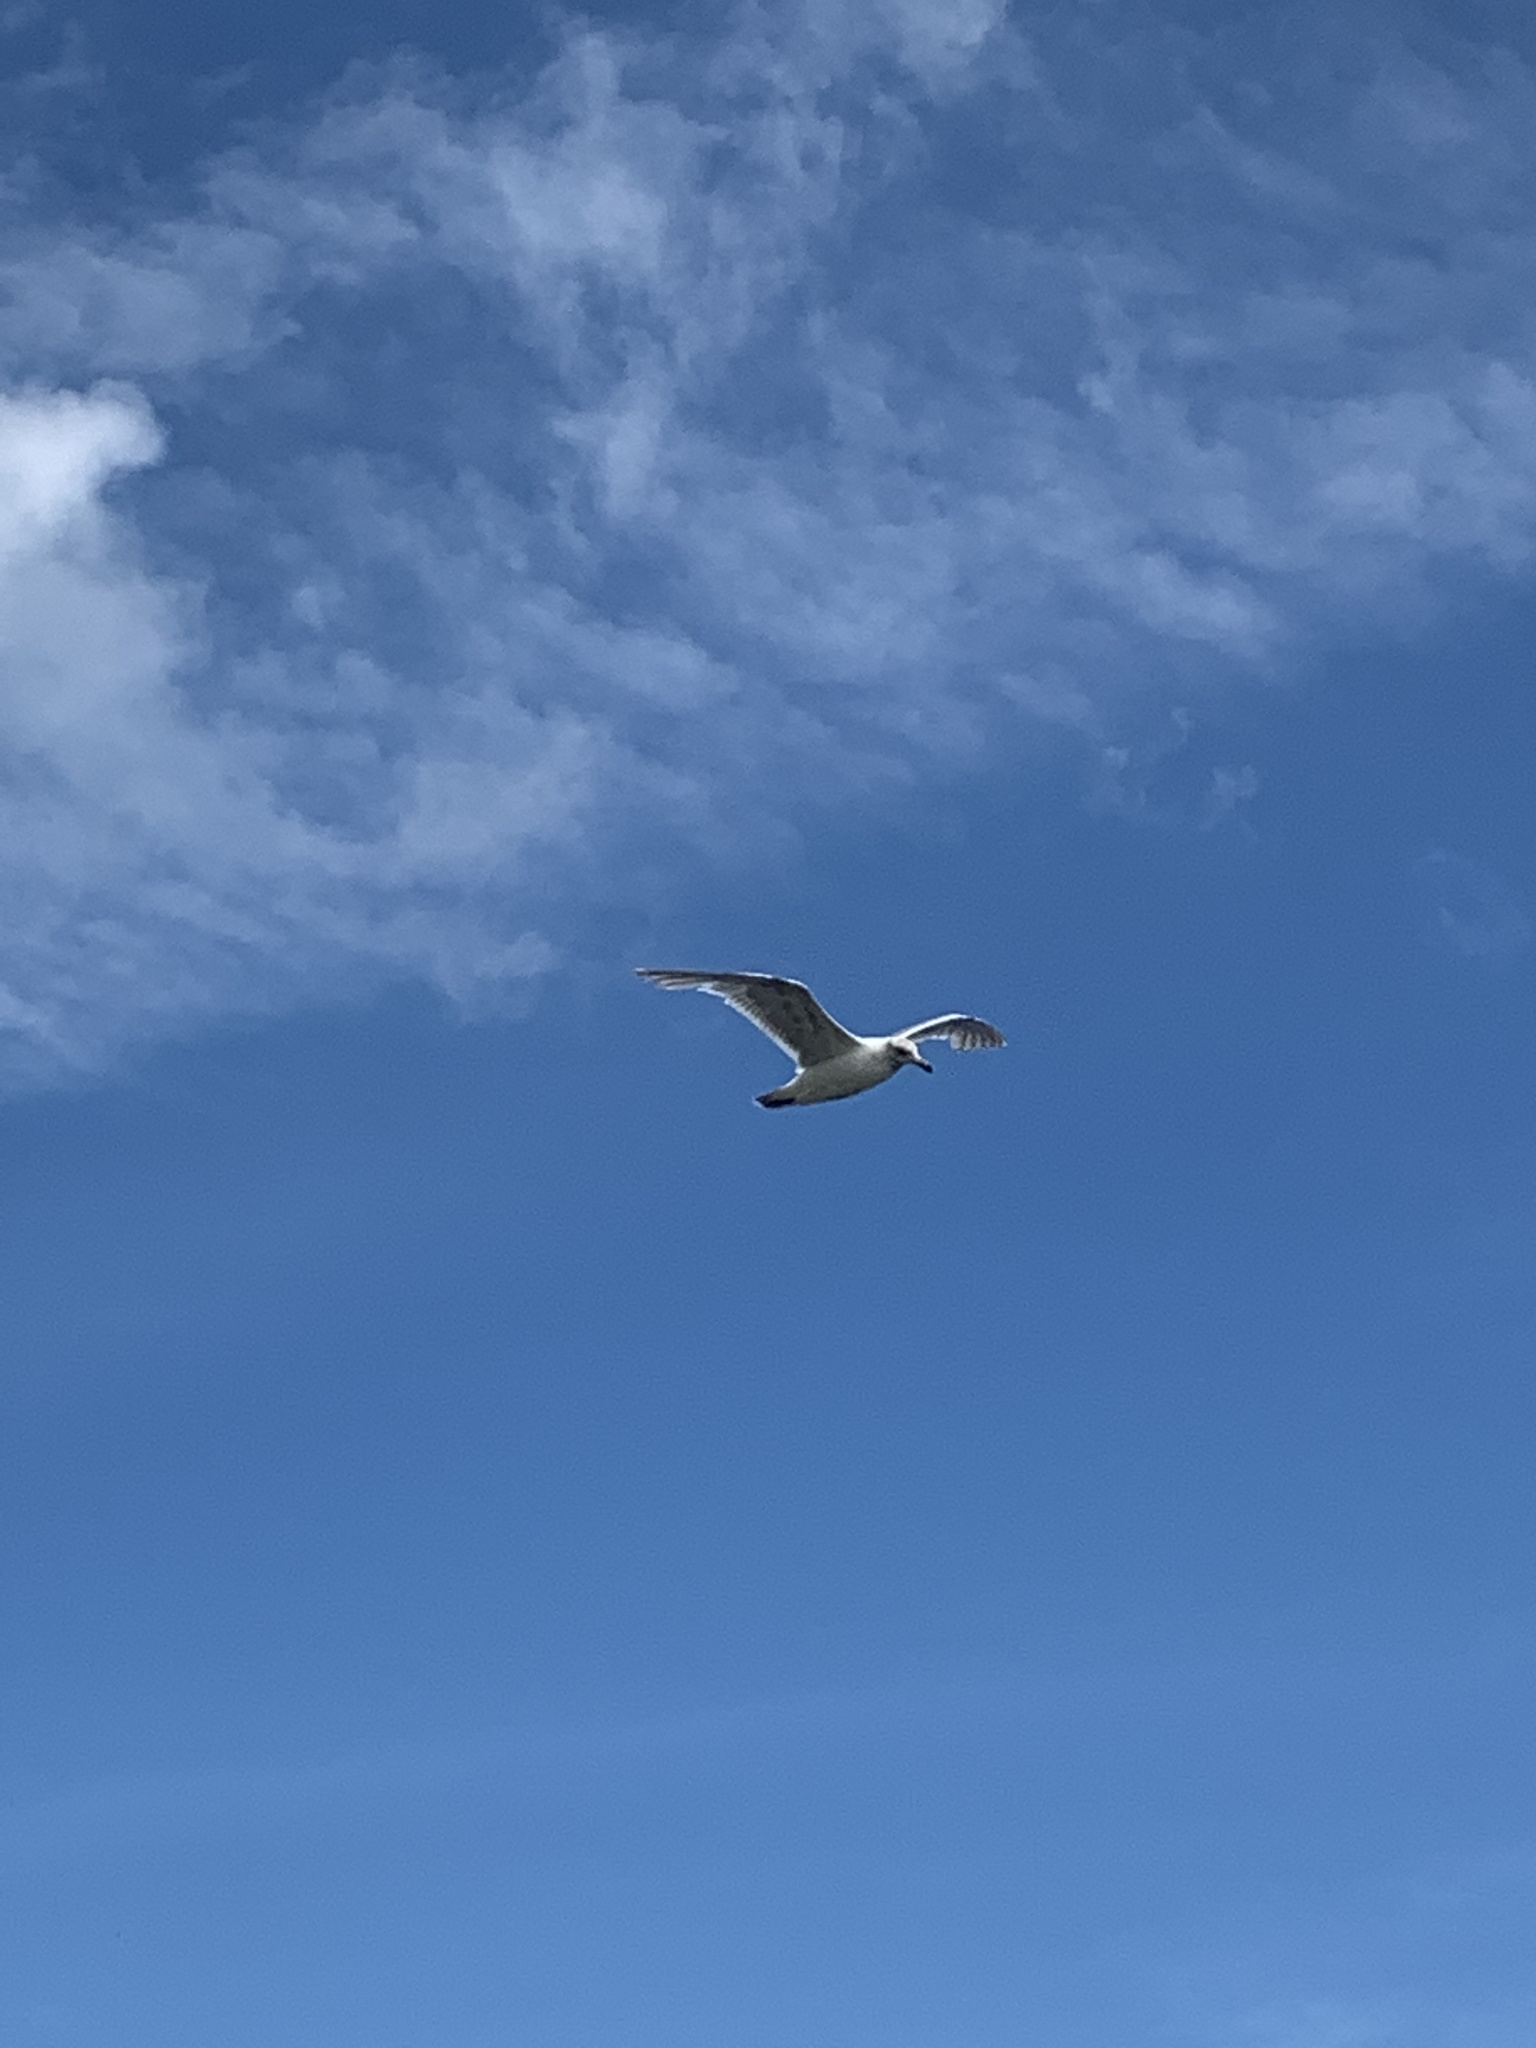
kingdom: Animalia
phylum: Chordata
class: Aves
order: Charadriiformes
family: Laridae
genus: Larus
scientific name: Larus glaucescens
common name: Glaucous-winged gull
